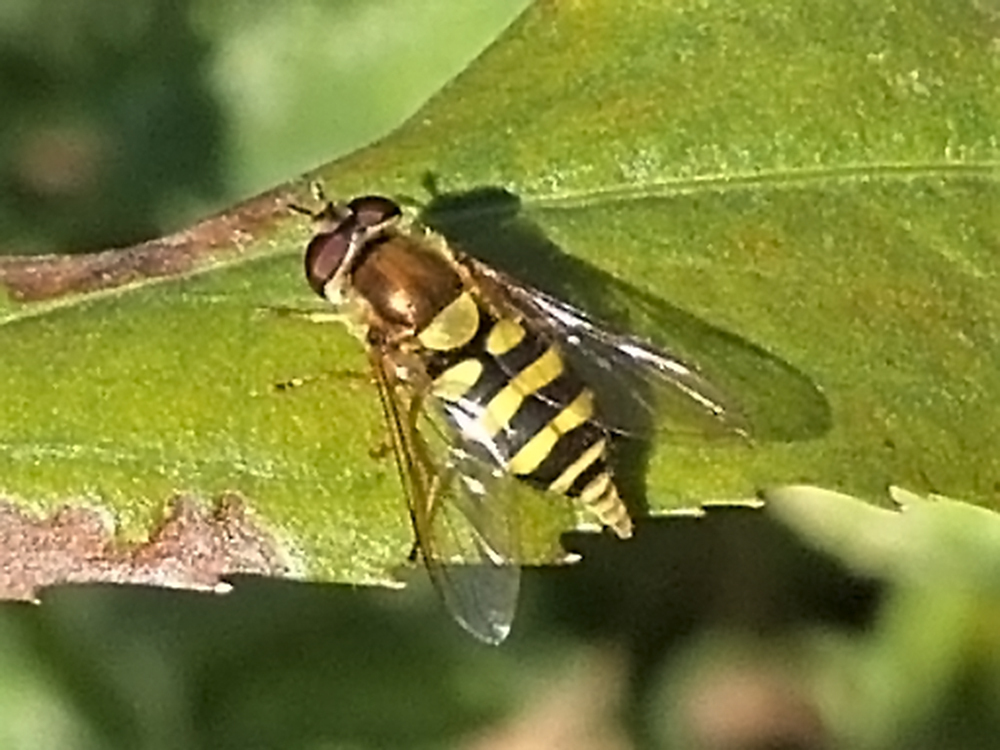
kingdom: Animalia
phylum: Arthropoda
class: Insecta
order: Diptera
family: Syrphidae
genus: Syrphus
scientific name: Syrphus
